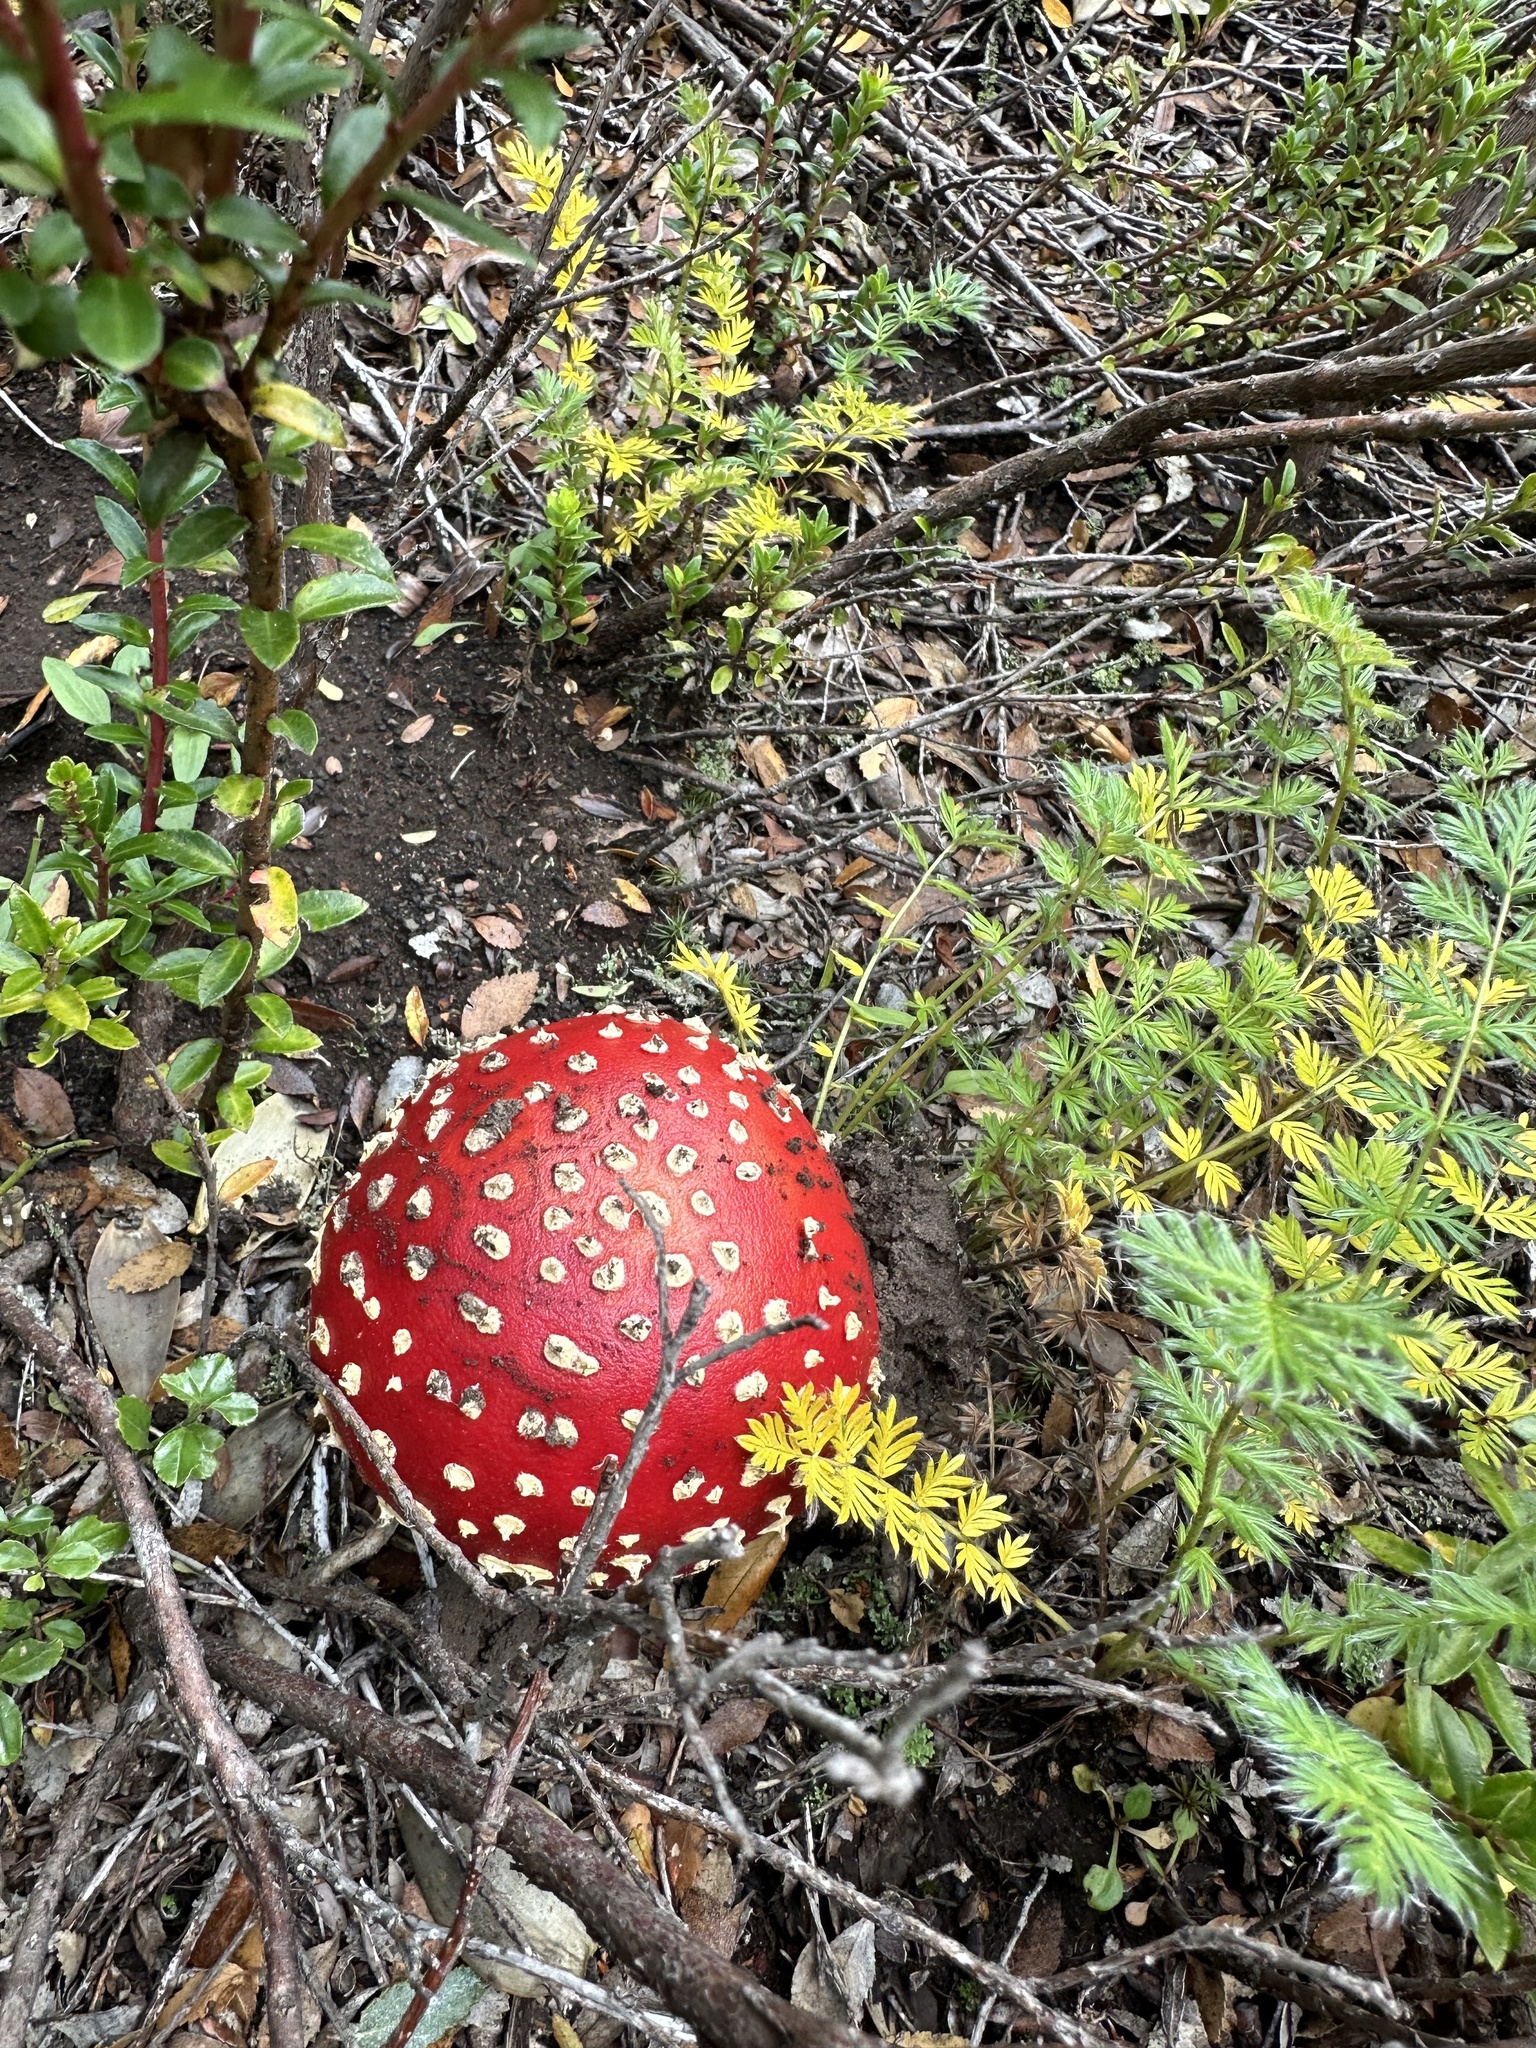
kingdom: Fungi
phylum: Basidiomycota
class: Agaricomycetes
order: Agaricales
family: Amanitaceae
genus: Amanita
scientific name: Amanita muscaria
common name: Fly agaric
